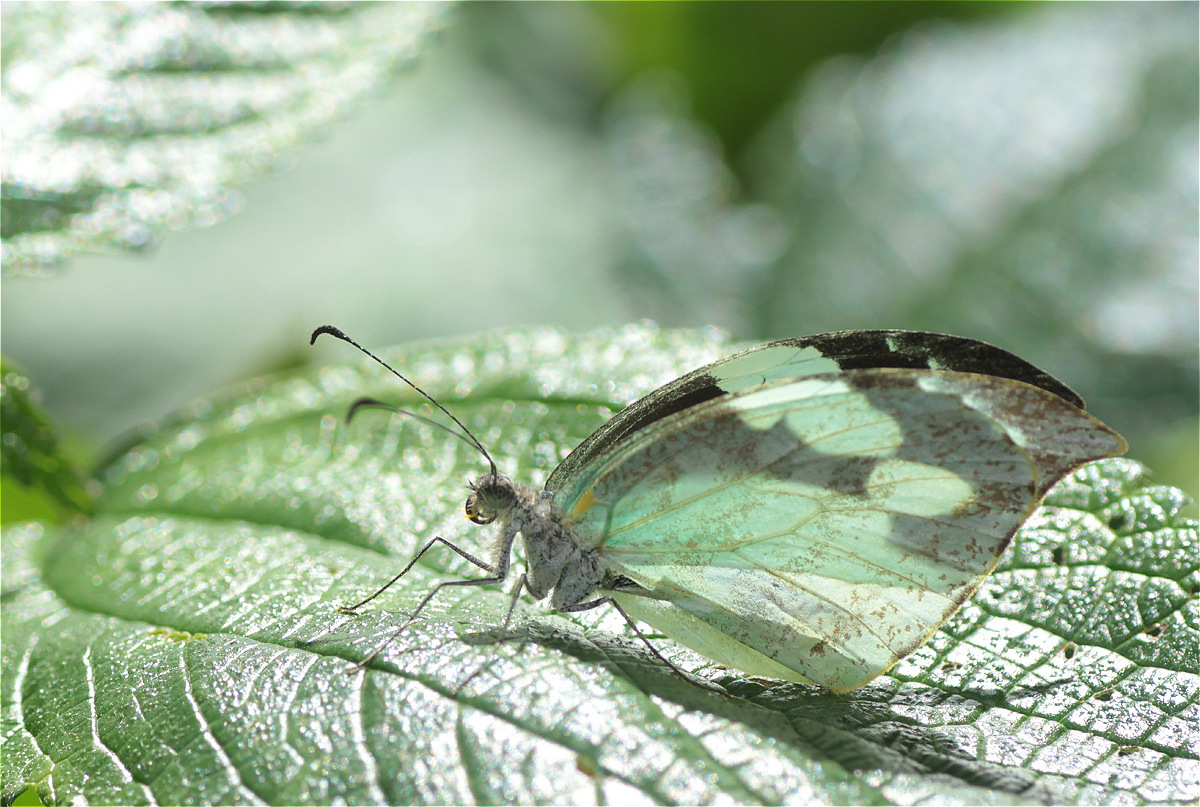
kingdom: Animalia
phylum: Arthropoda
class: Insecta
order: Lepidoptera
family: Pieridae
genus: Lieinix
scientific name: Lieinix nemesis
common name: Frosted mimic-white
